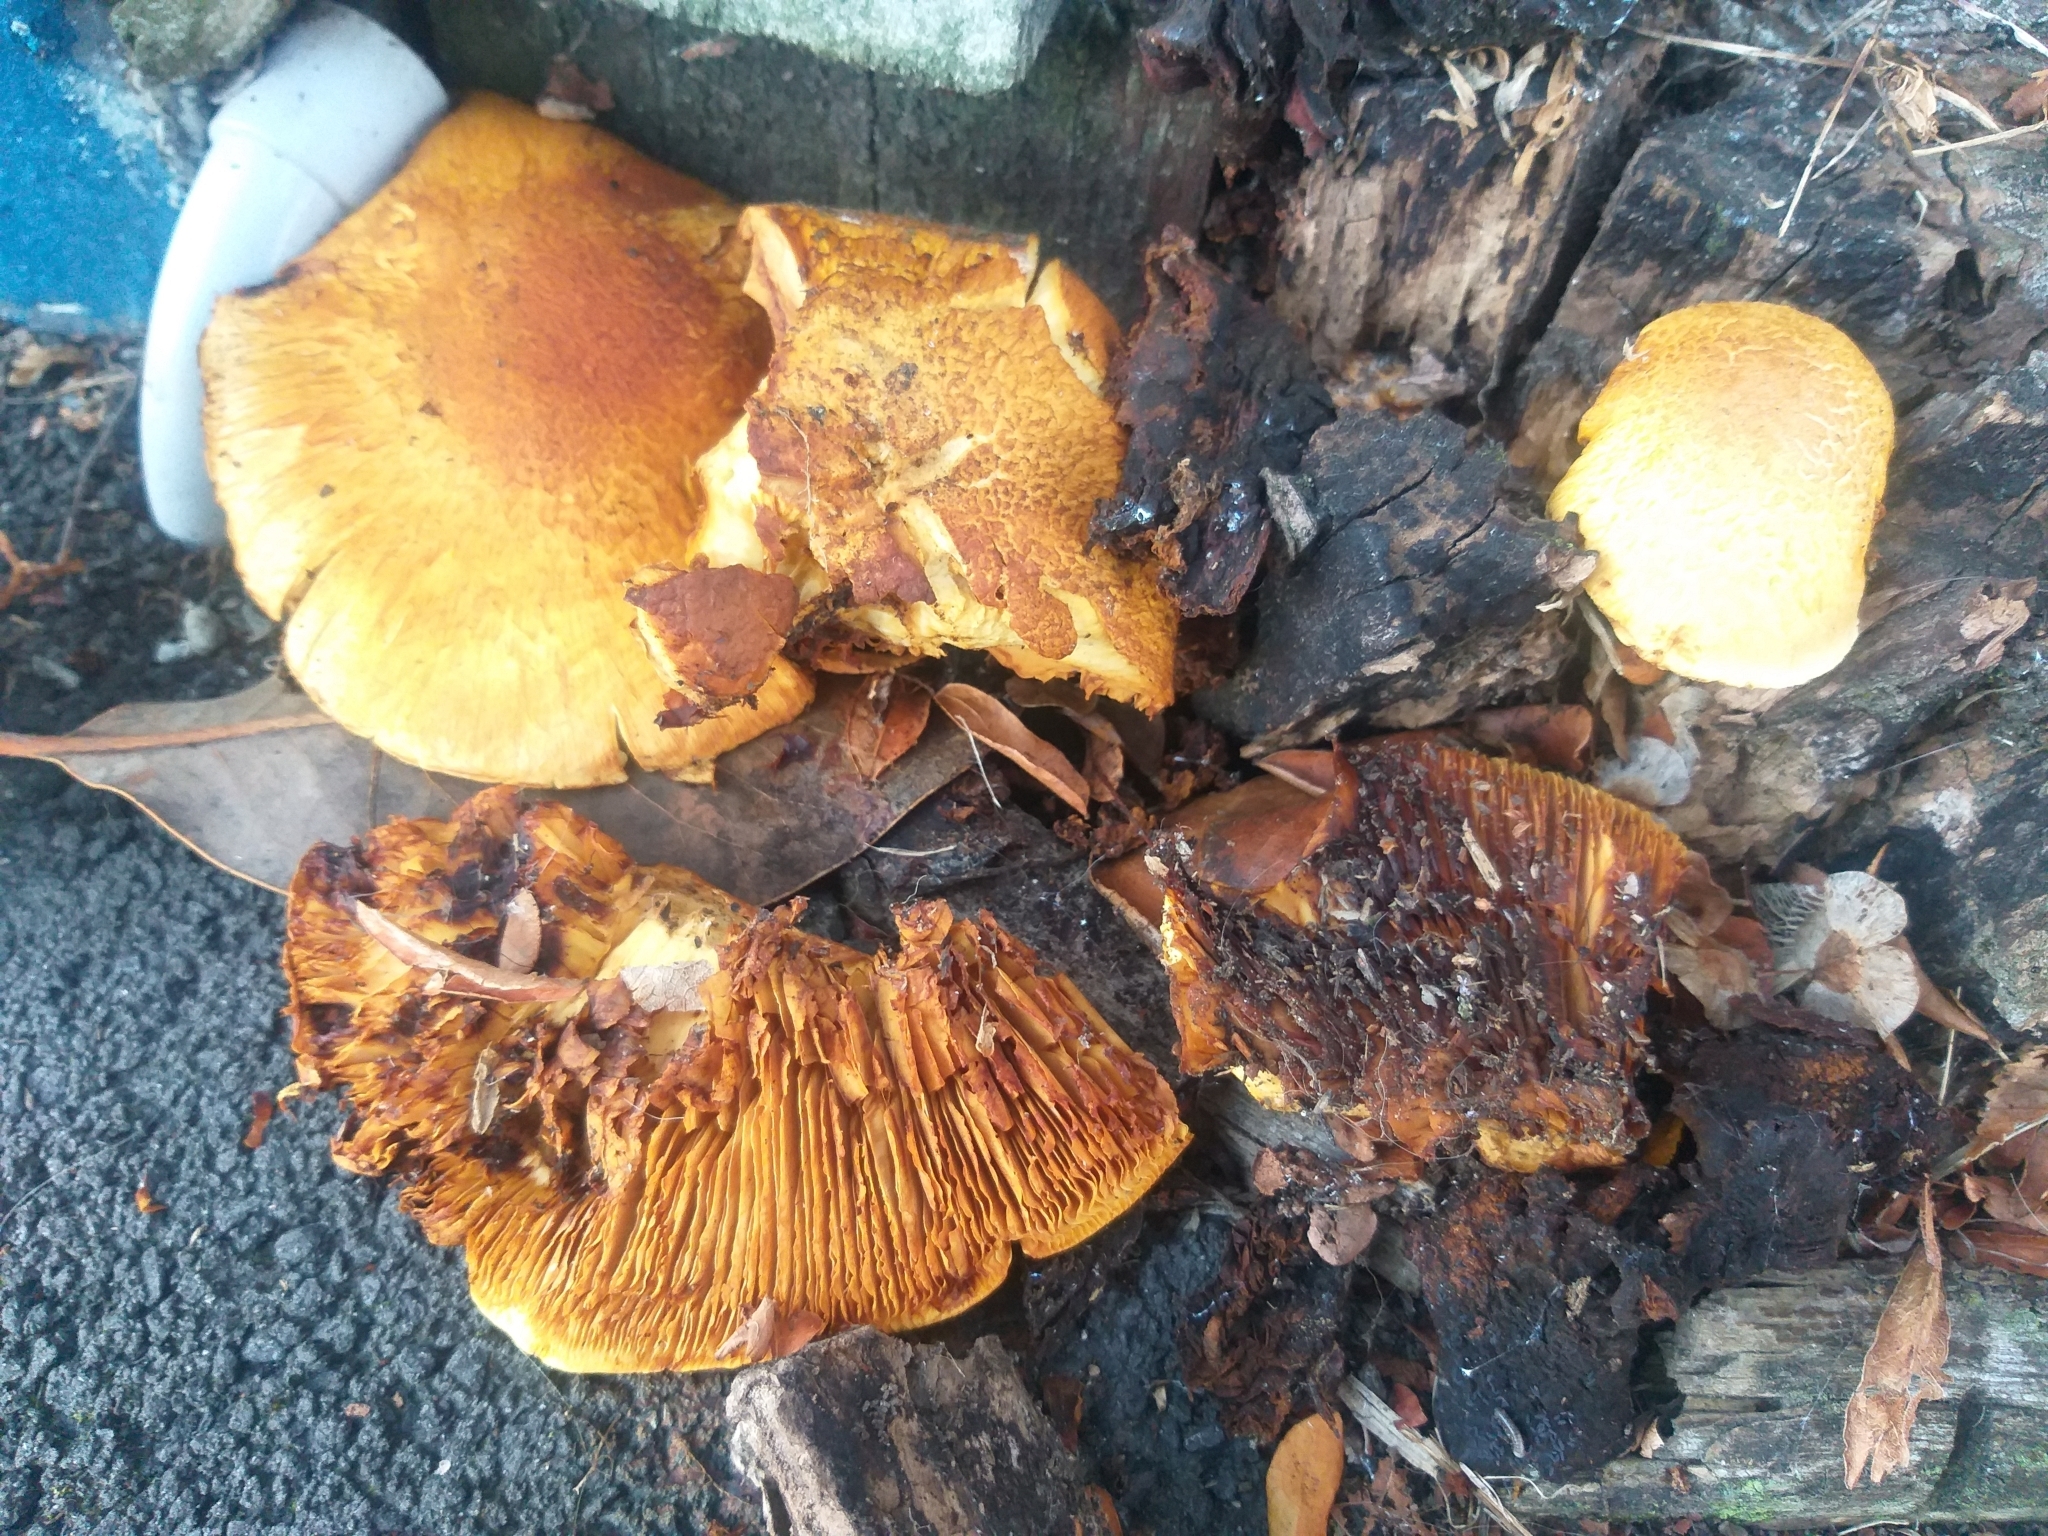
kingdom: Fungi
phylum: Basidiomycota
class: Agaricomycetes
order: Agaricales
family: Hymenogastraceae
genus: Gymnopilus
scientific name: Gymnopilus junonius
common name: Spectacular rustgill
